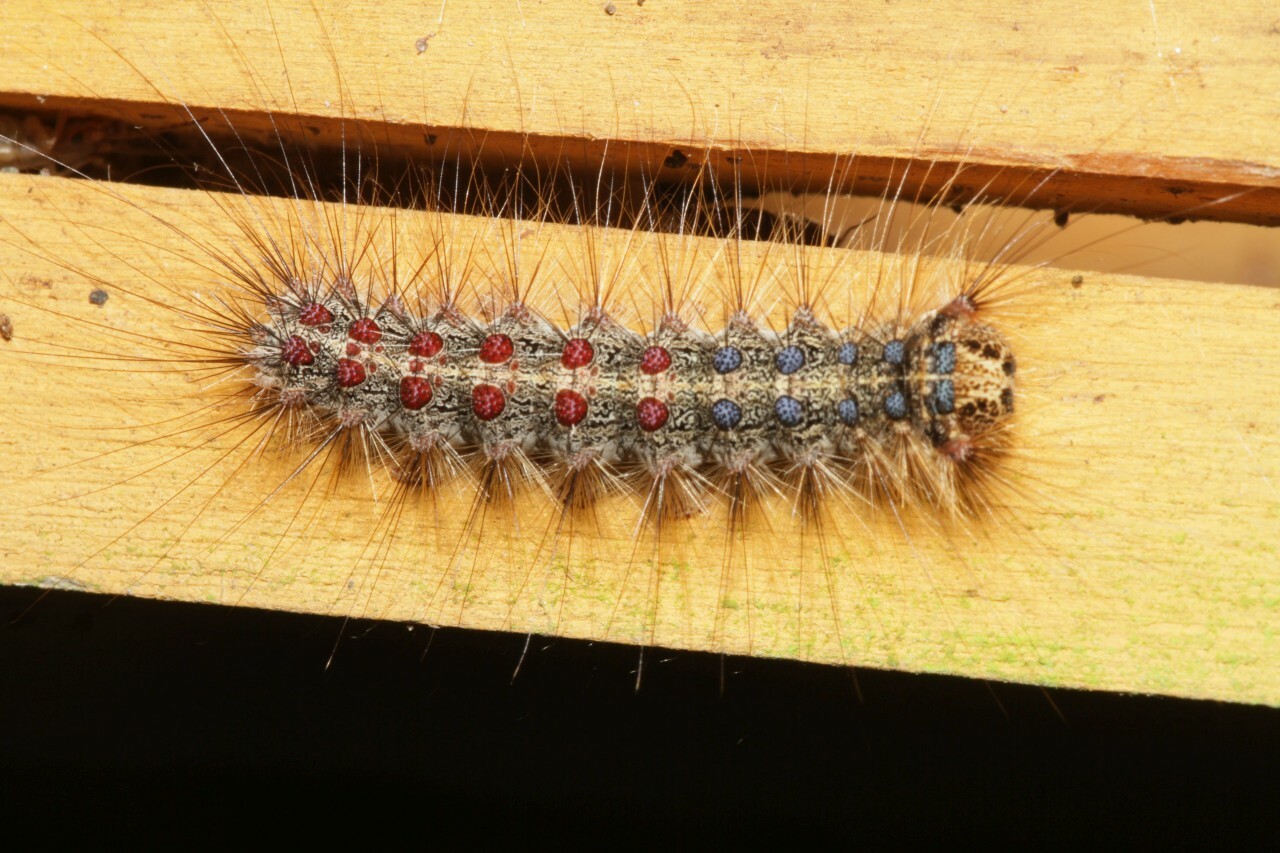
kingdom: Animalia
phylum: Arthropoda
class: Insecta
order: Lepidoptera
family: Erebidae
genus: Lymantria
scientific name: Lymantria dispar
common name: Gypsy moth
